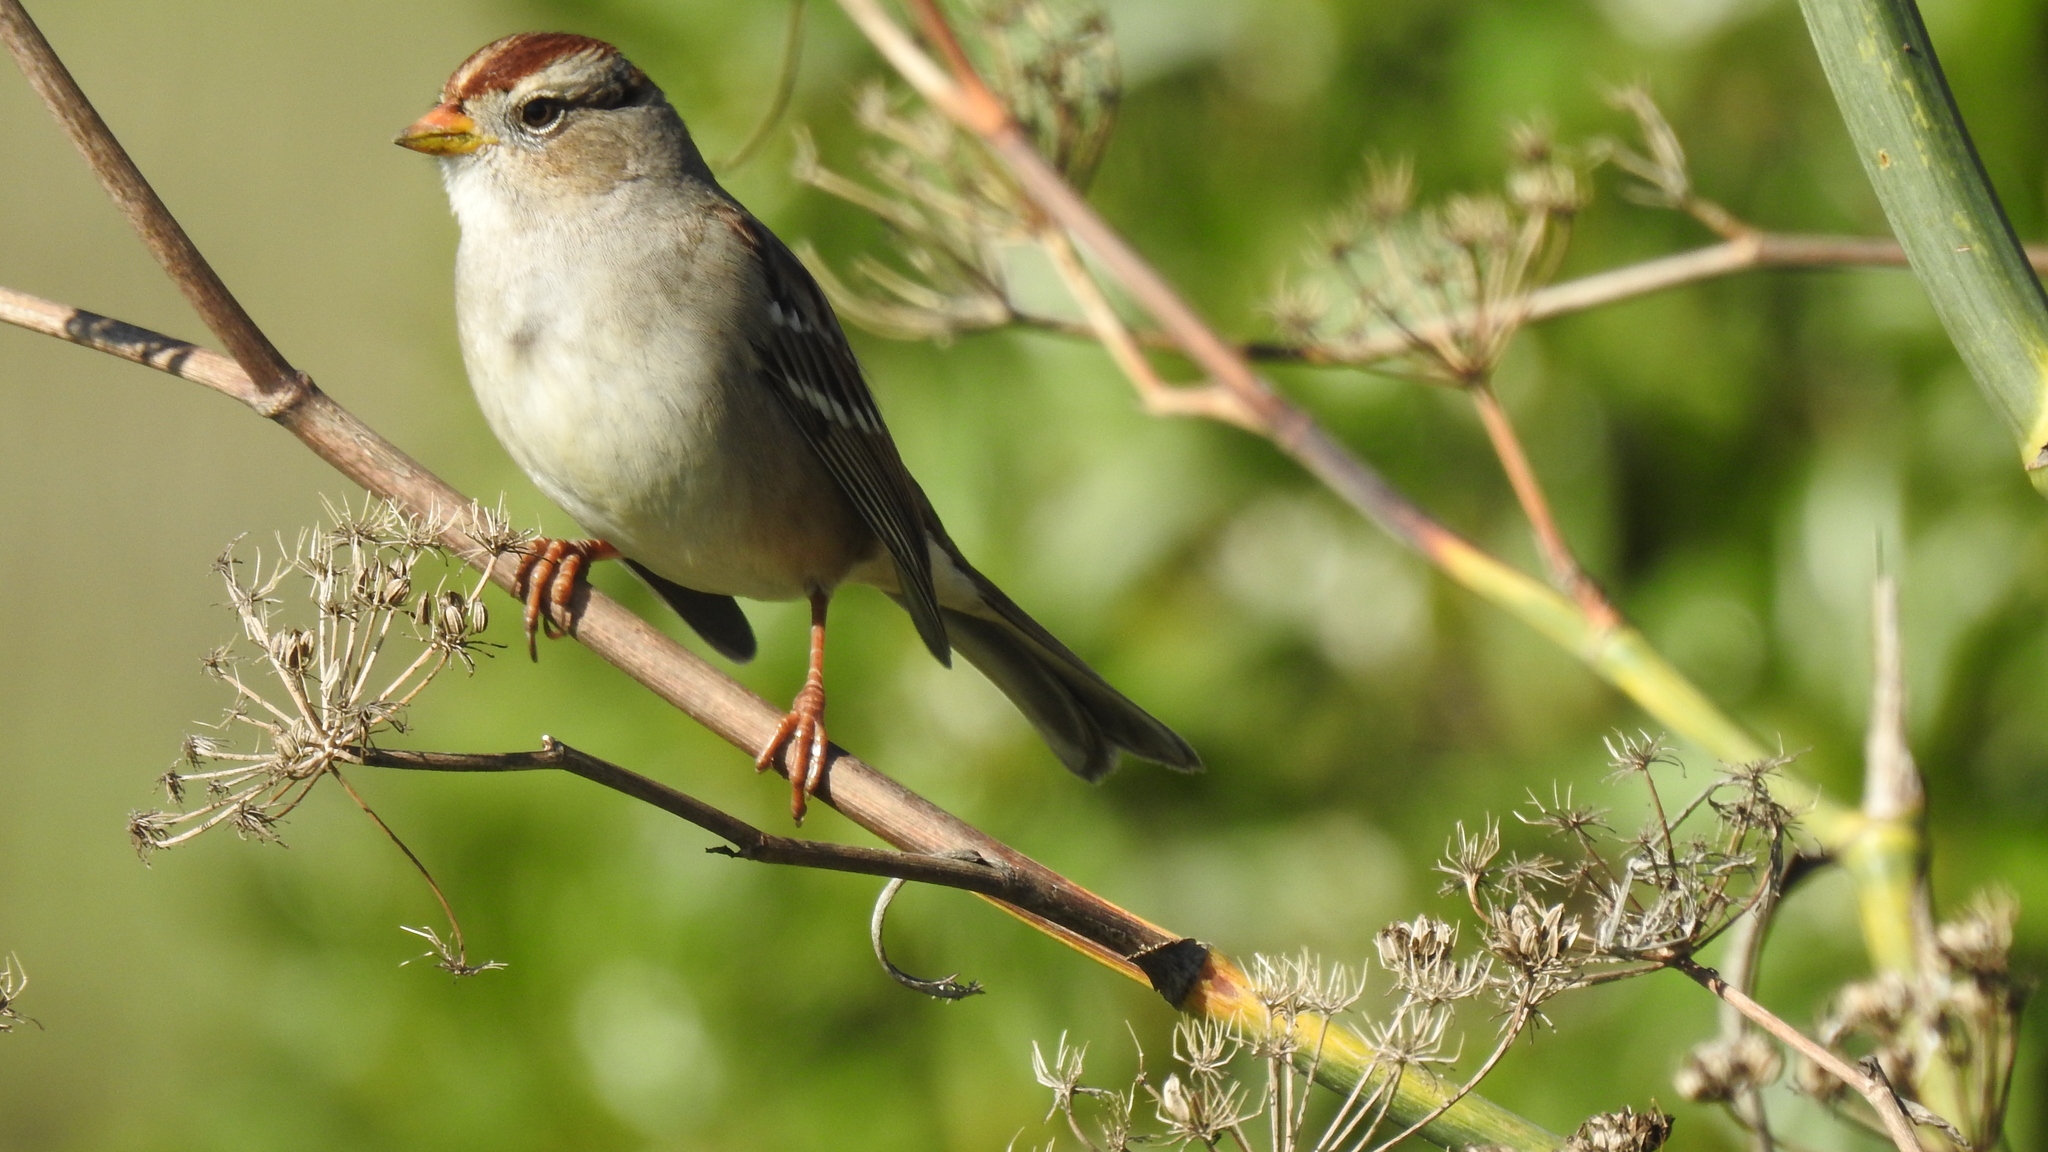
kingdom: Animalia
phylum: Chordata
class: Aves
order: Passeriformes
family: Passerellidae
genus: Zonotrichia
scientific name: Zonotrichia leucophrys
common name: White-crowned sparrow
